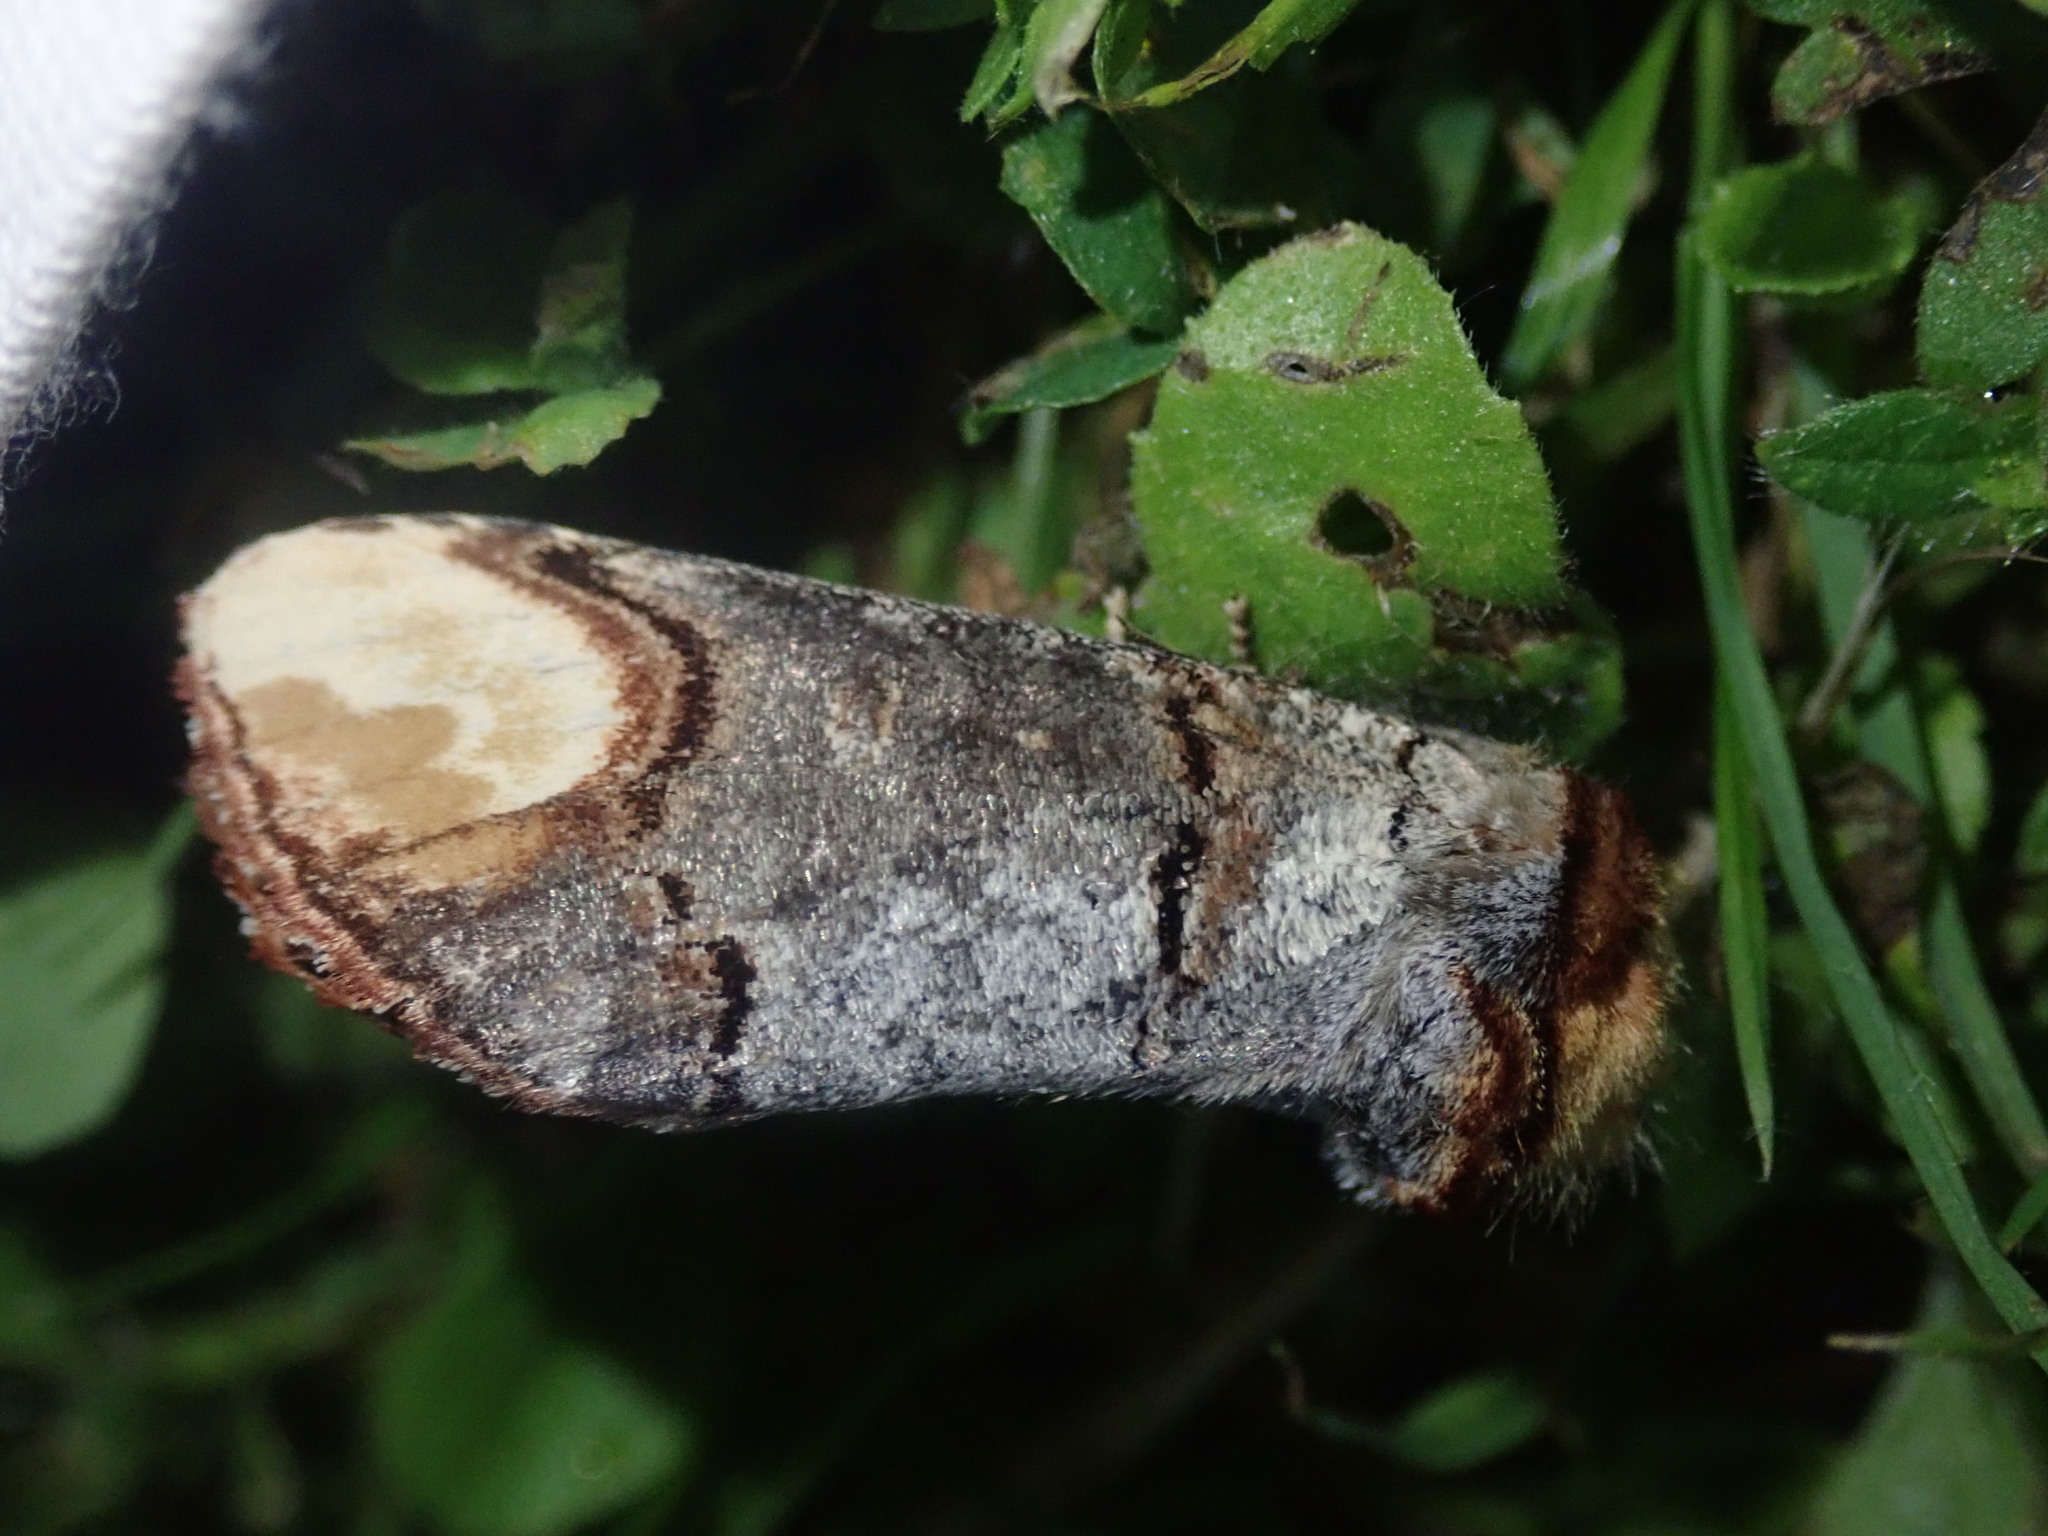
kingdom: Animalia
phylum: Arthropoda
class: Insecta
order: Lepidoptera
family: Notodontidae
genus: Phalera
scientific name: Phalera bucephala
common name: Buff-tip
